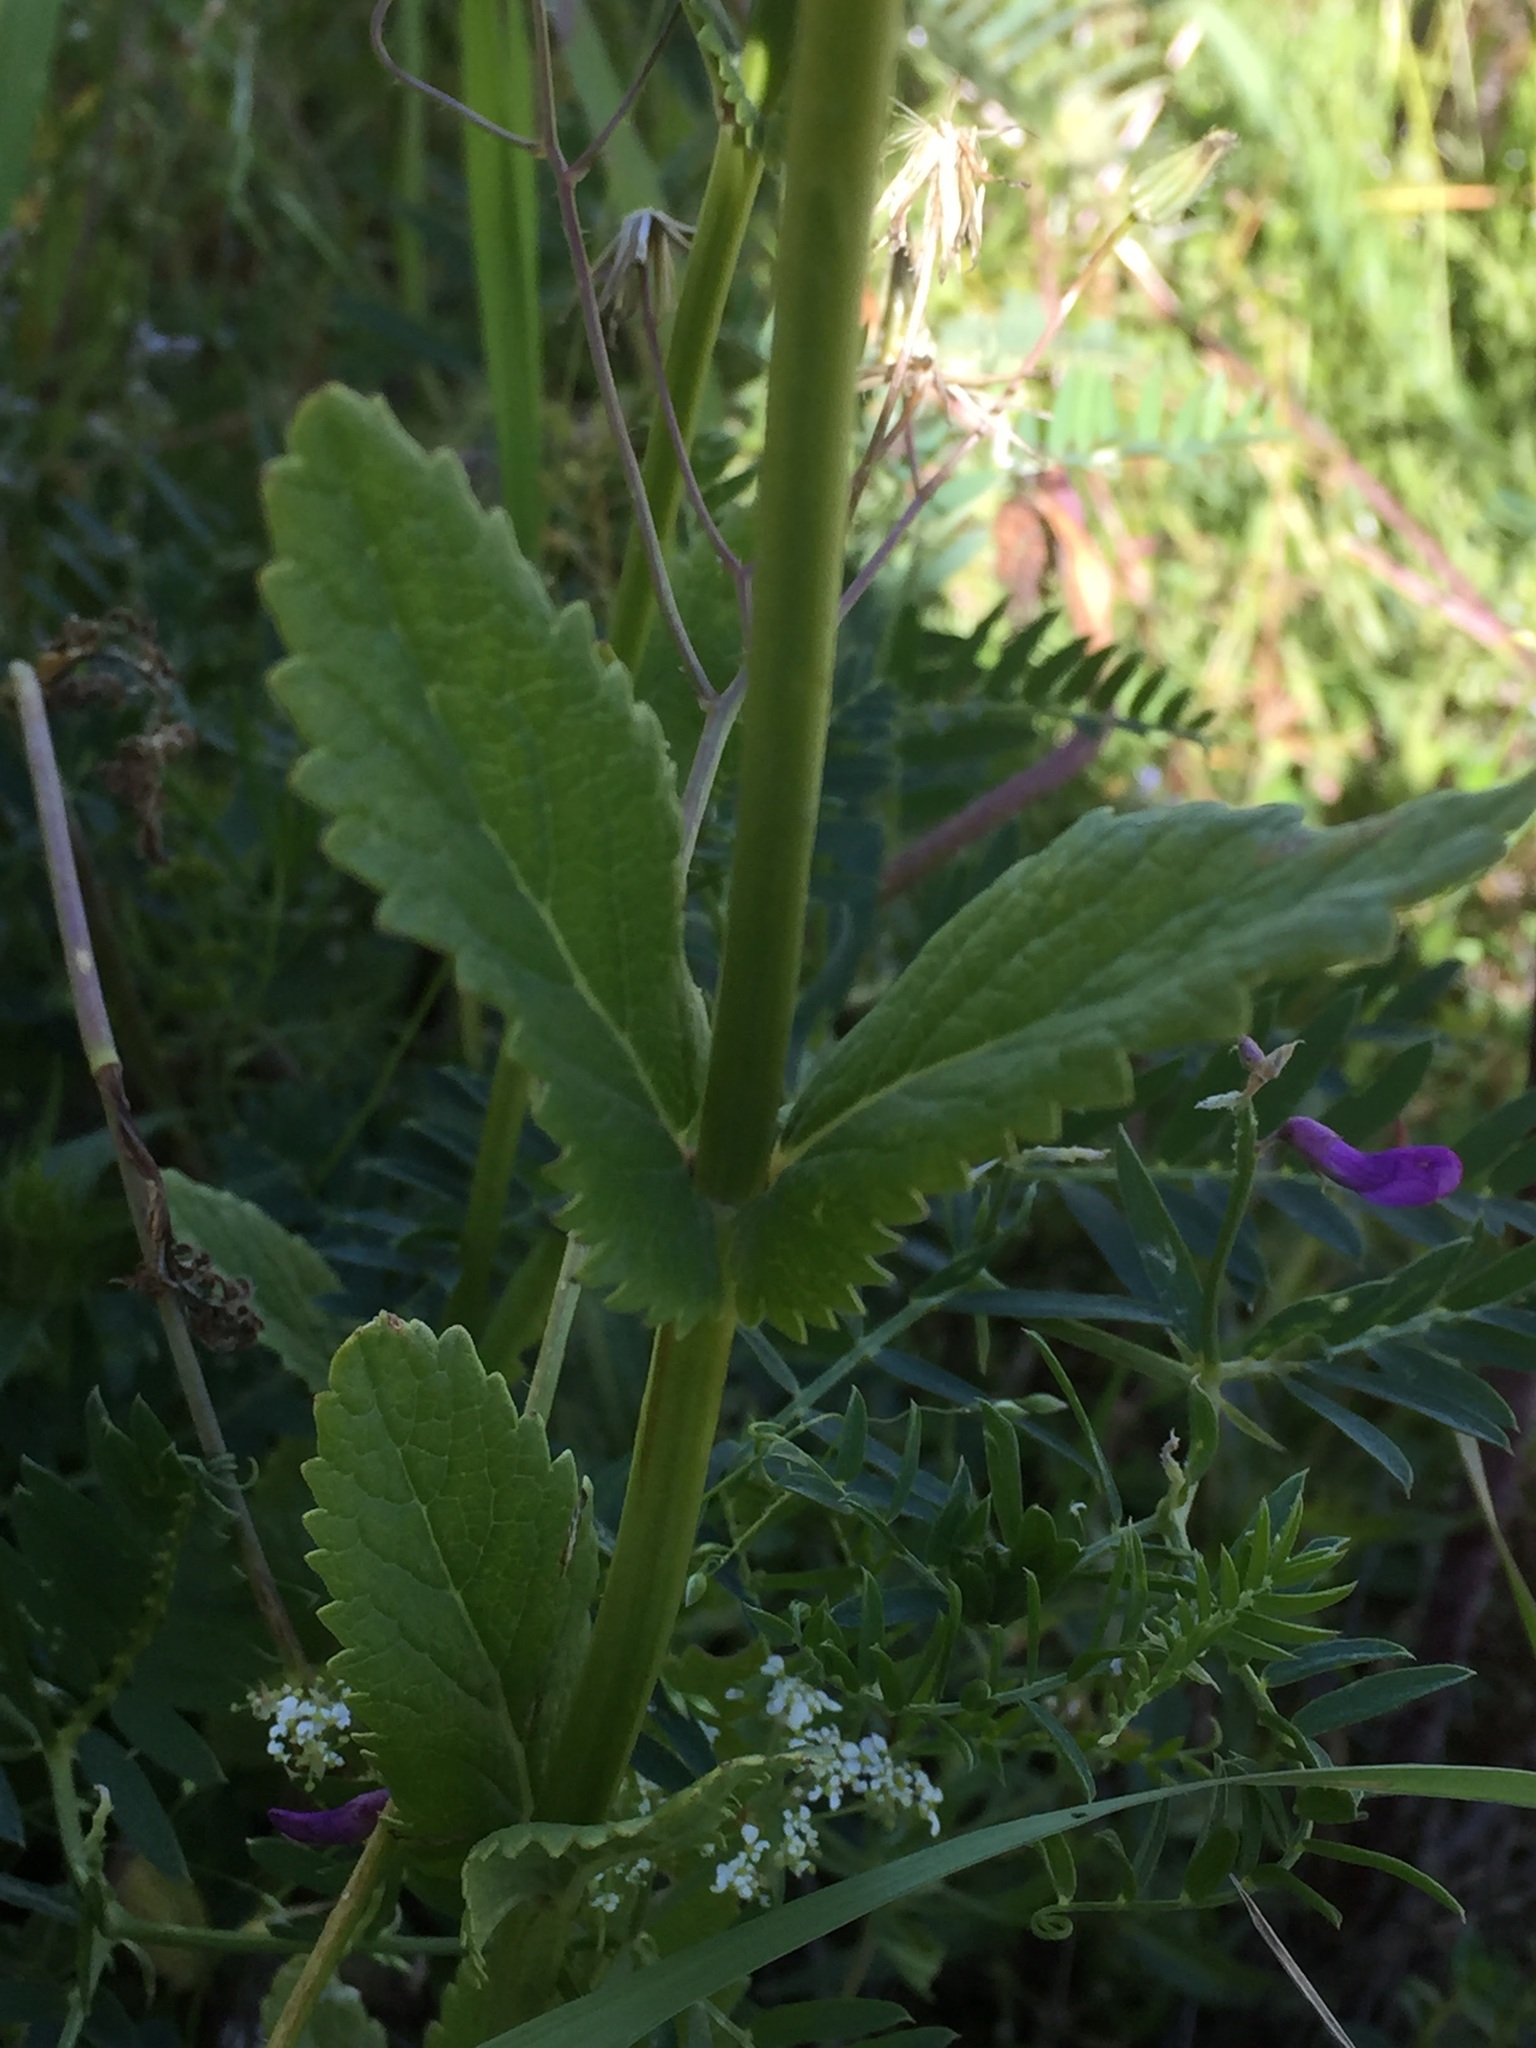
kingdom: Plantae
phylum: Tracheophyta
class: Magnoliopsida
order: Lamiales
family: Lamiaceae
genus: Salvia
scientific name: Salvia nemorosa
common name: Balkan clary
